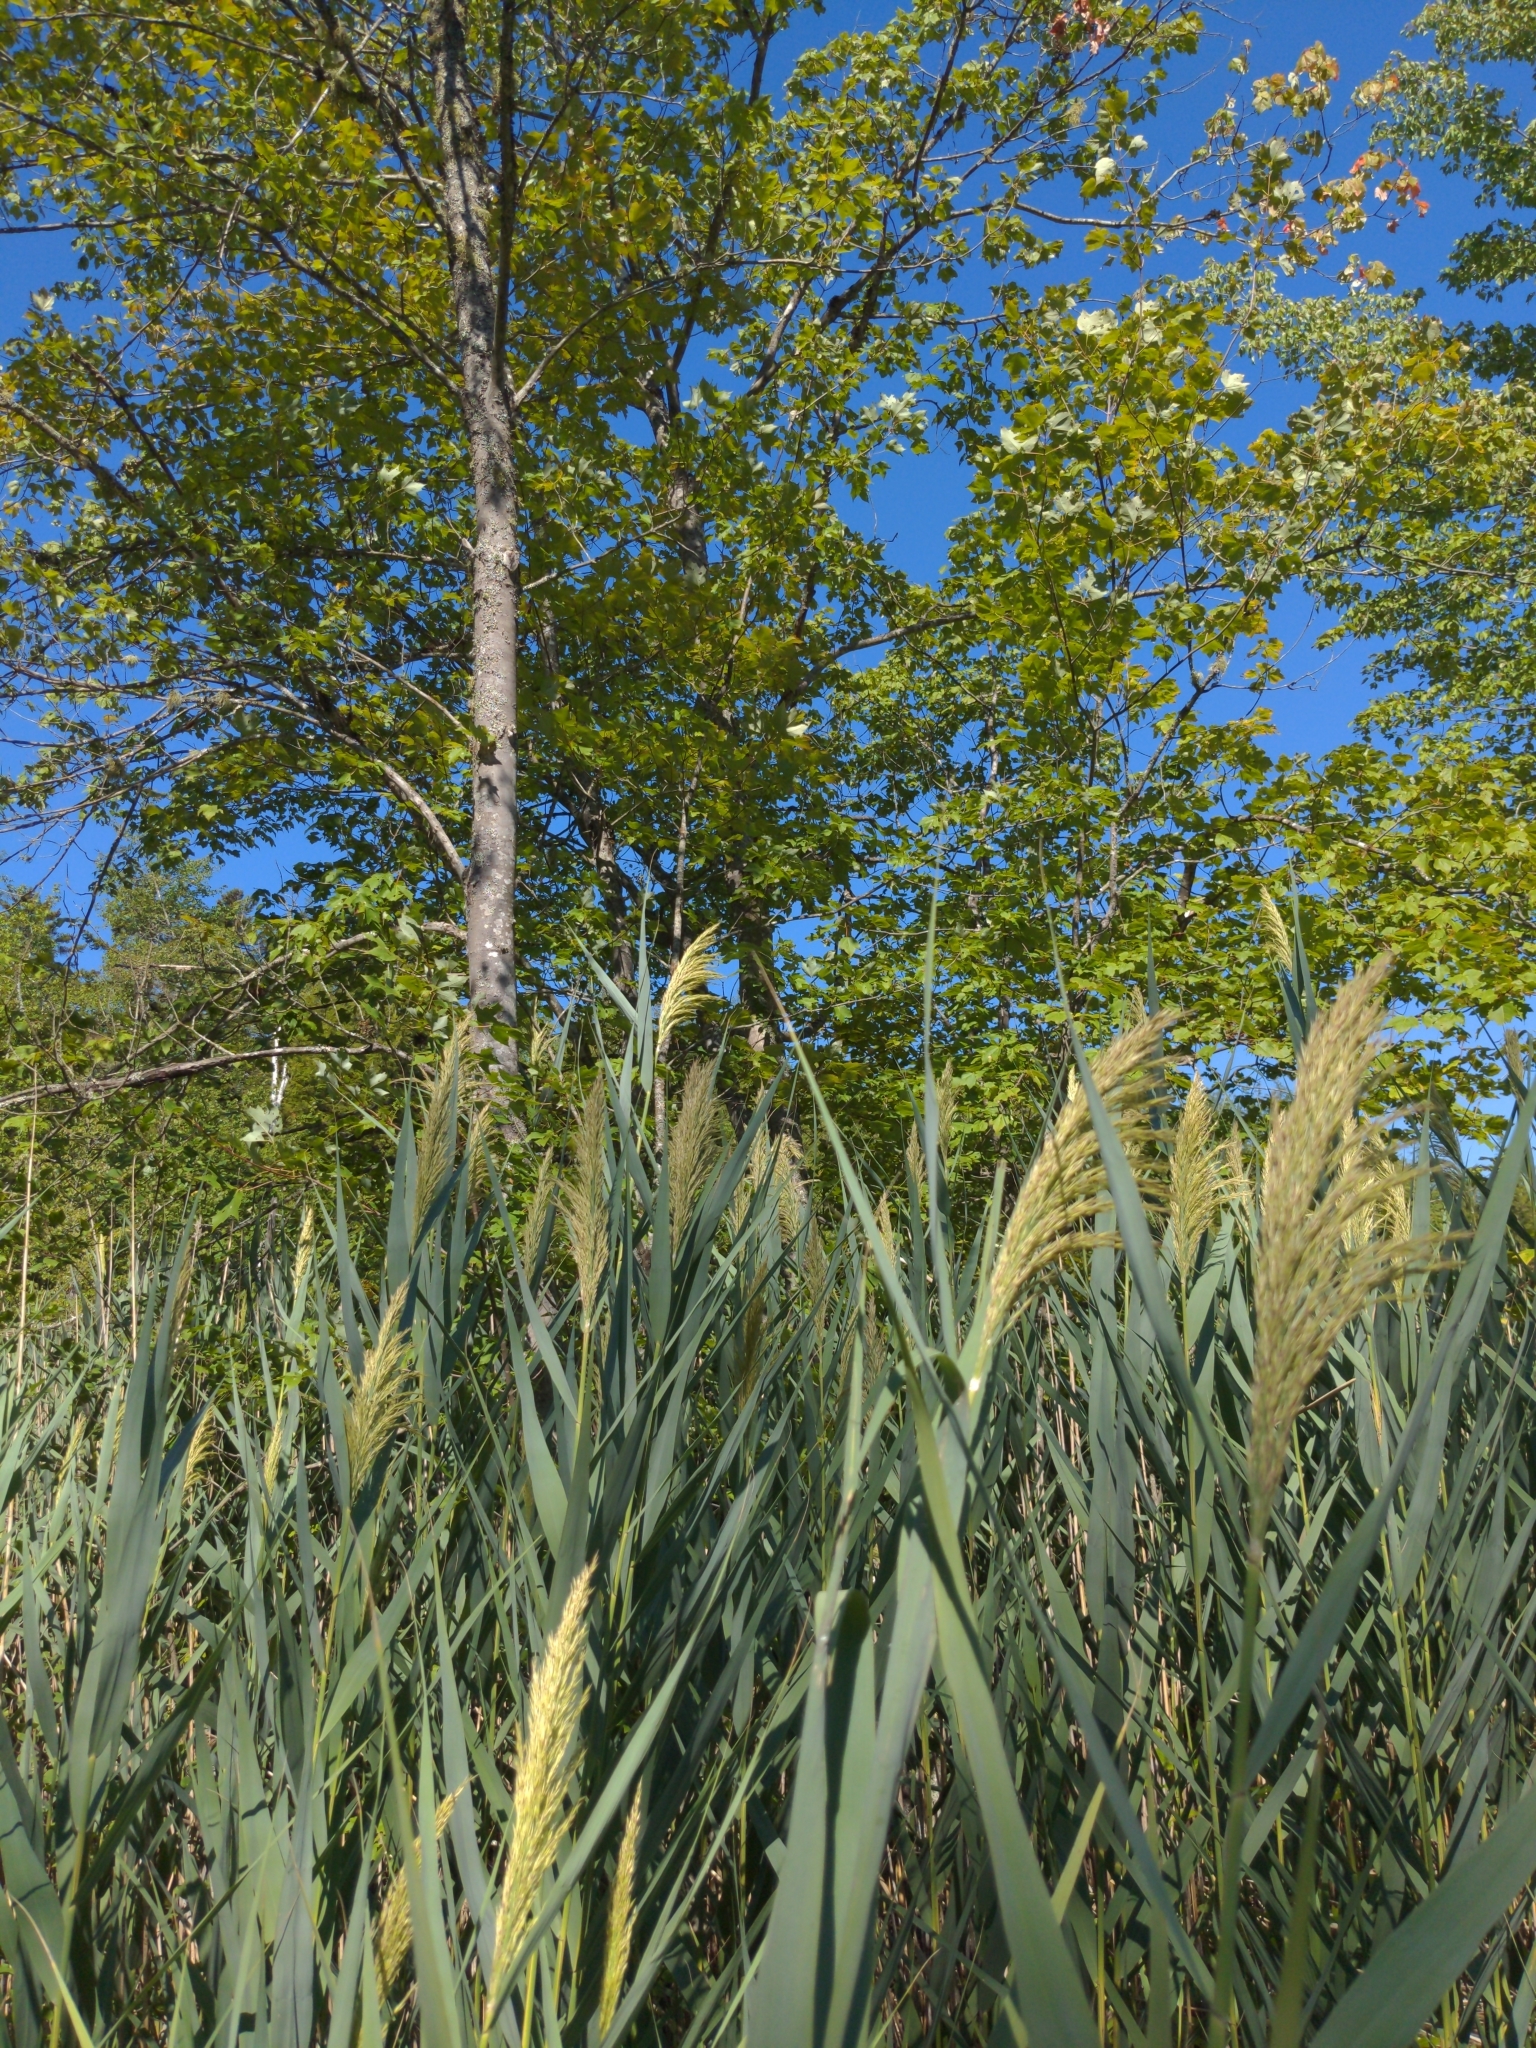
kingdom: Plantae
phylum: Tracheophyta
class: Liliopsida
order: Poales
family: Poaceae
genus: Phragmites
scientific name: Phragmites australis
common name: Common reed
